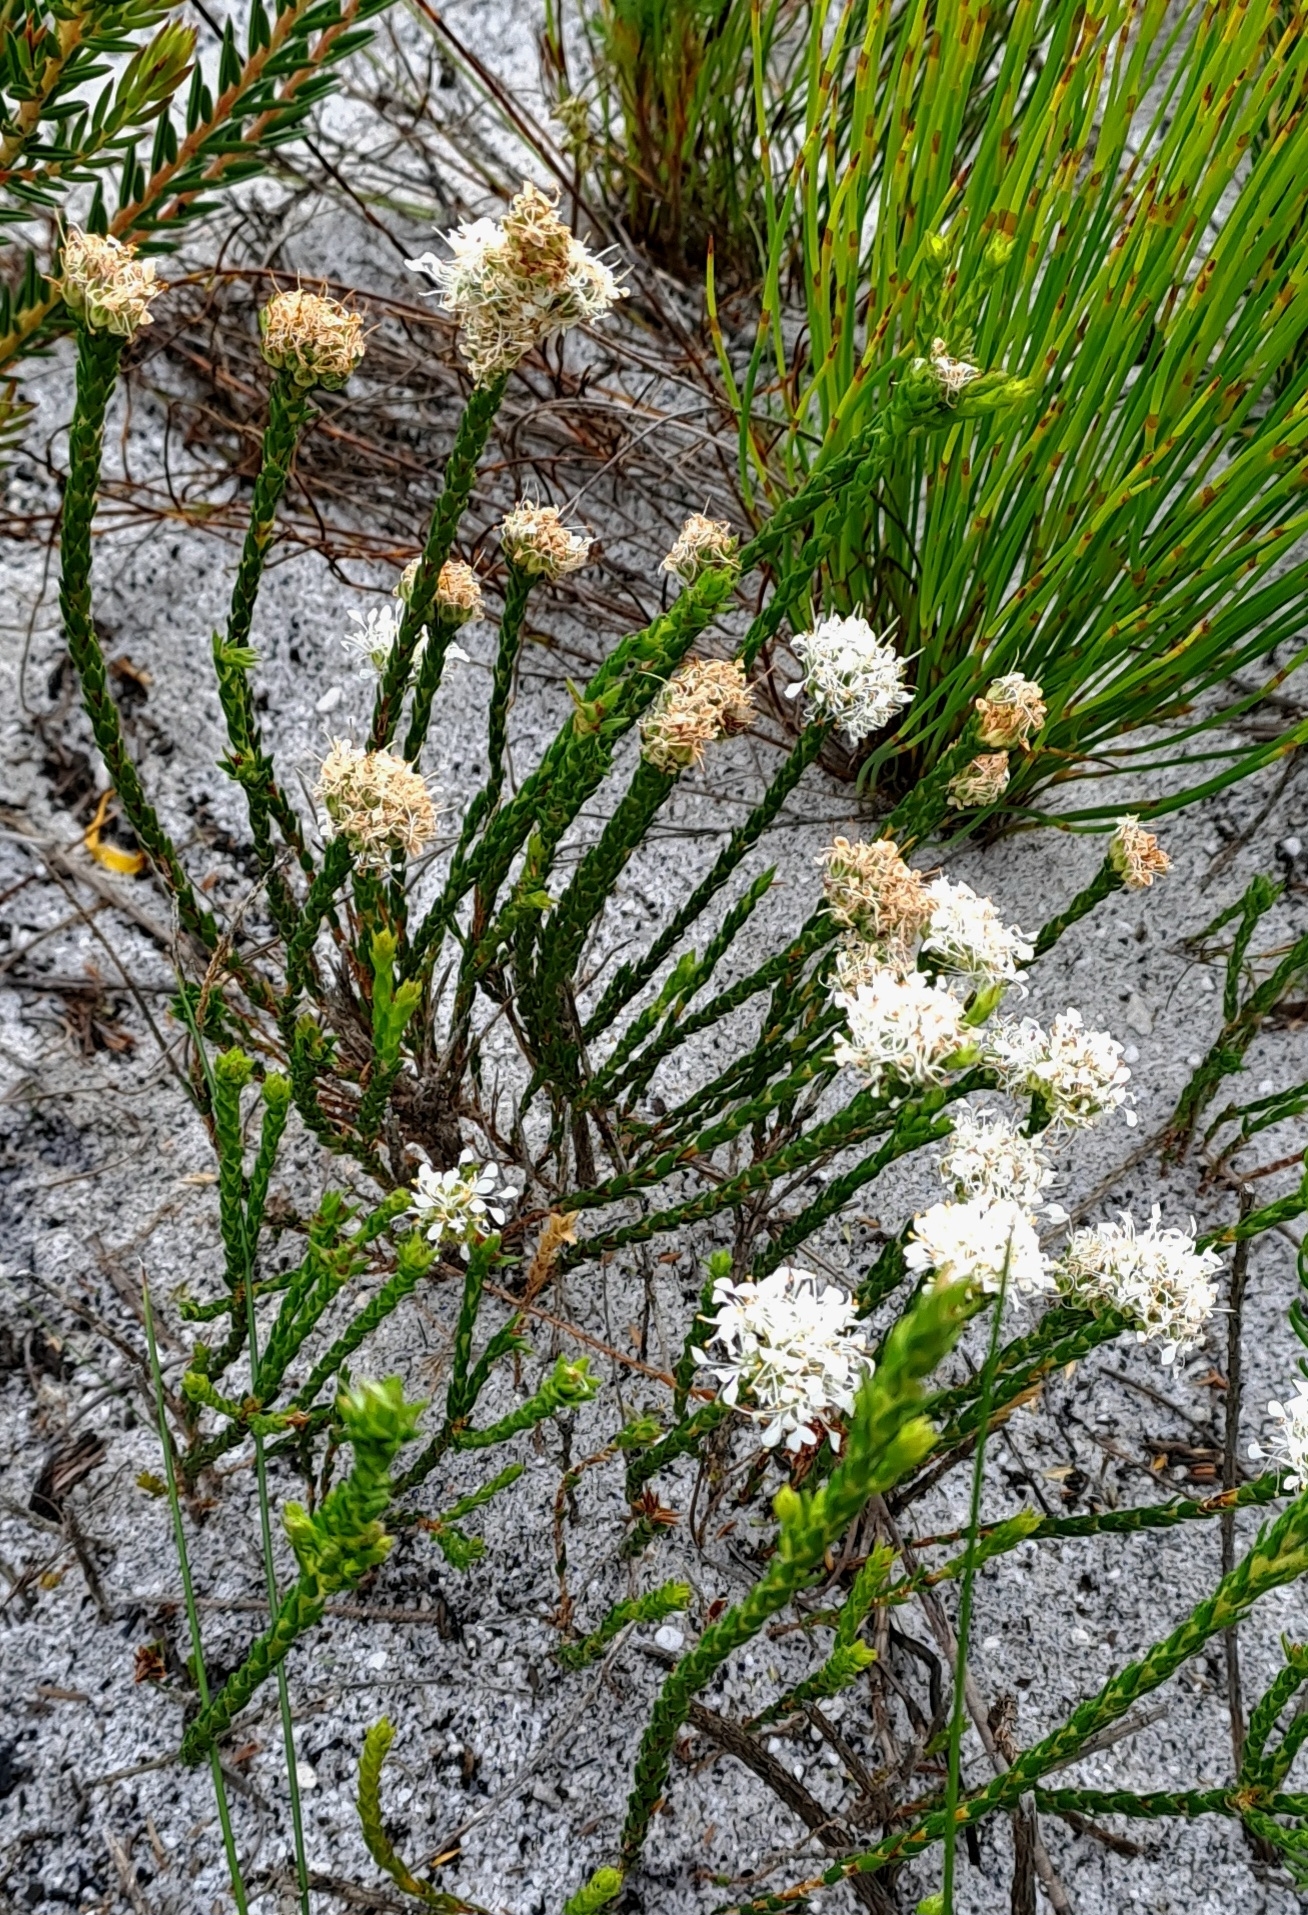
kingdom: Plantae
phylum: Tracheophyta
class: Magnoliopsida
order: Sapindales
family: Rutaceae
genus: Agathosma
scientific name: Agathosma imbricata
